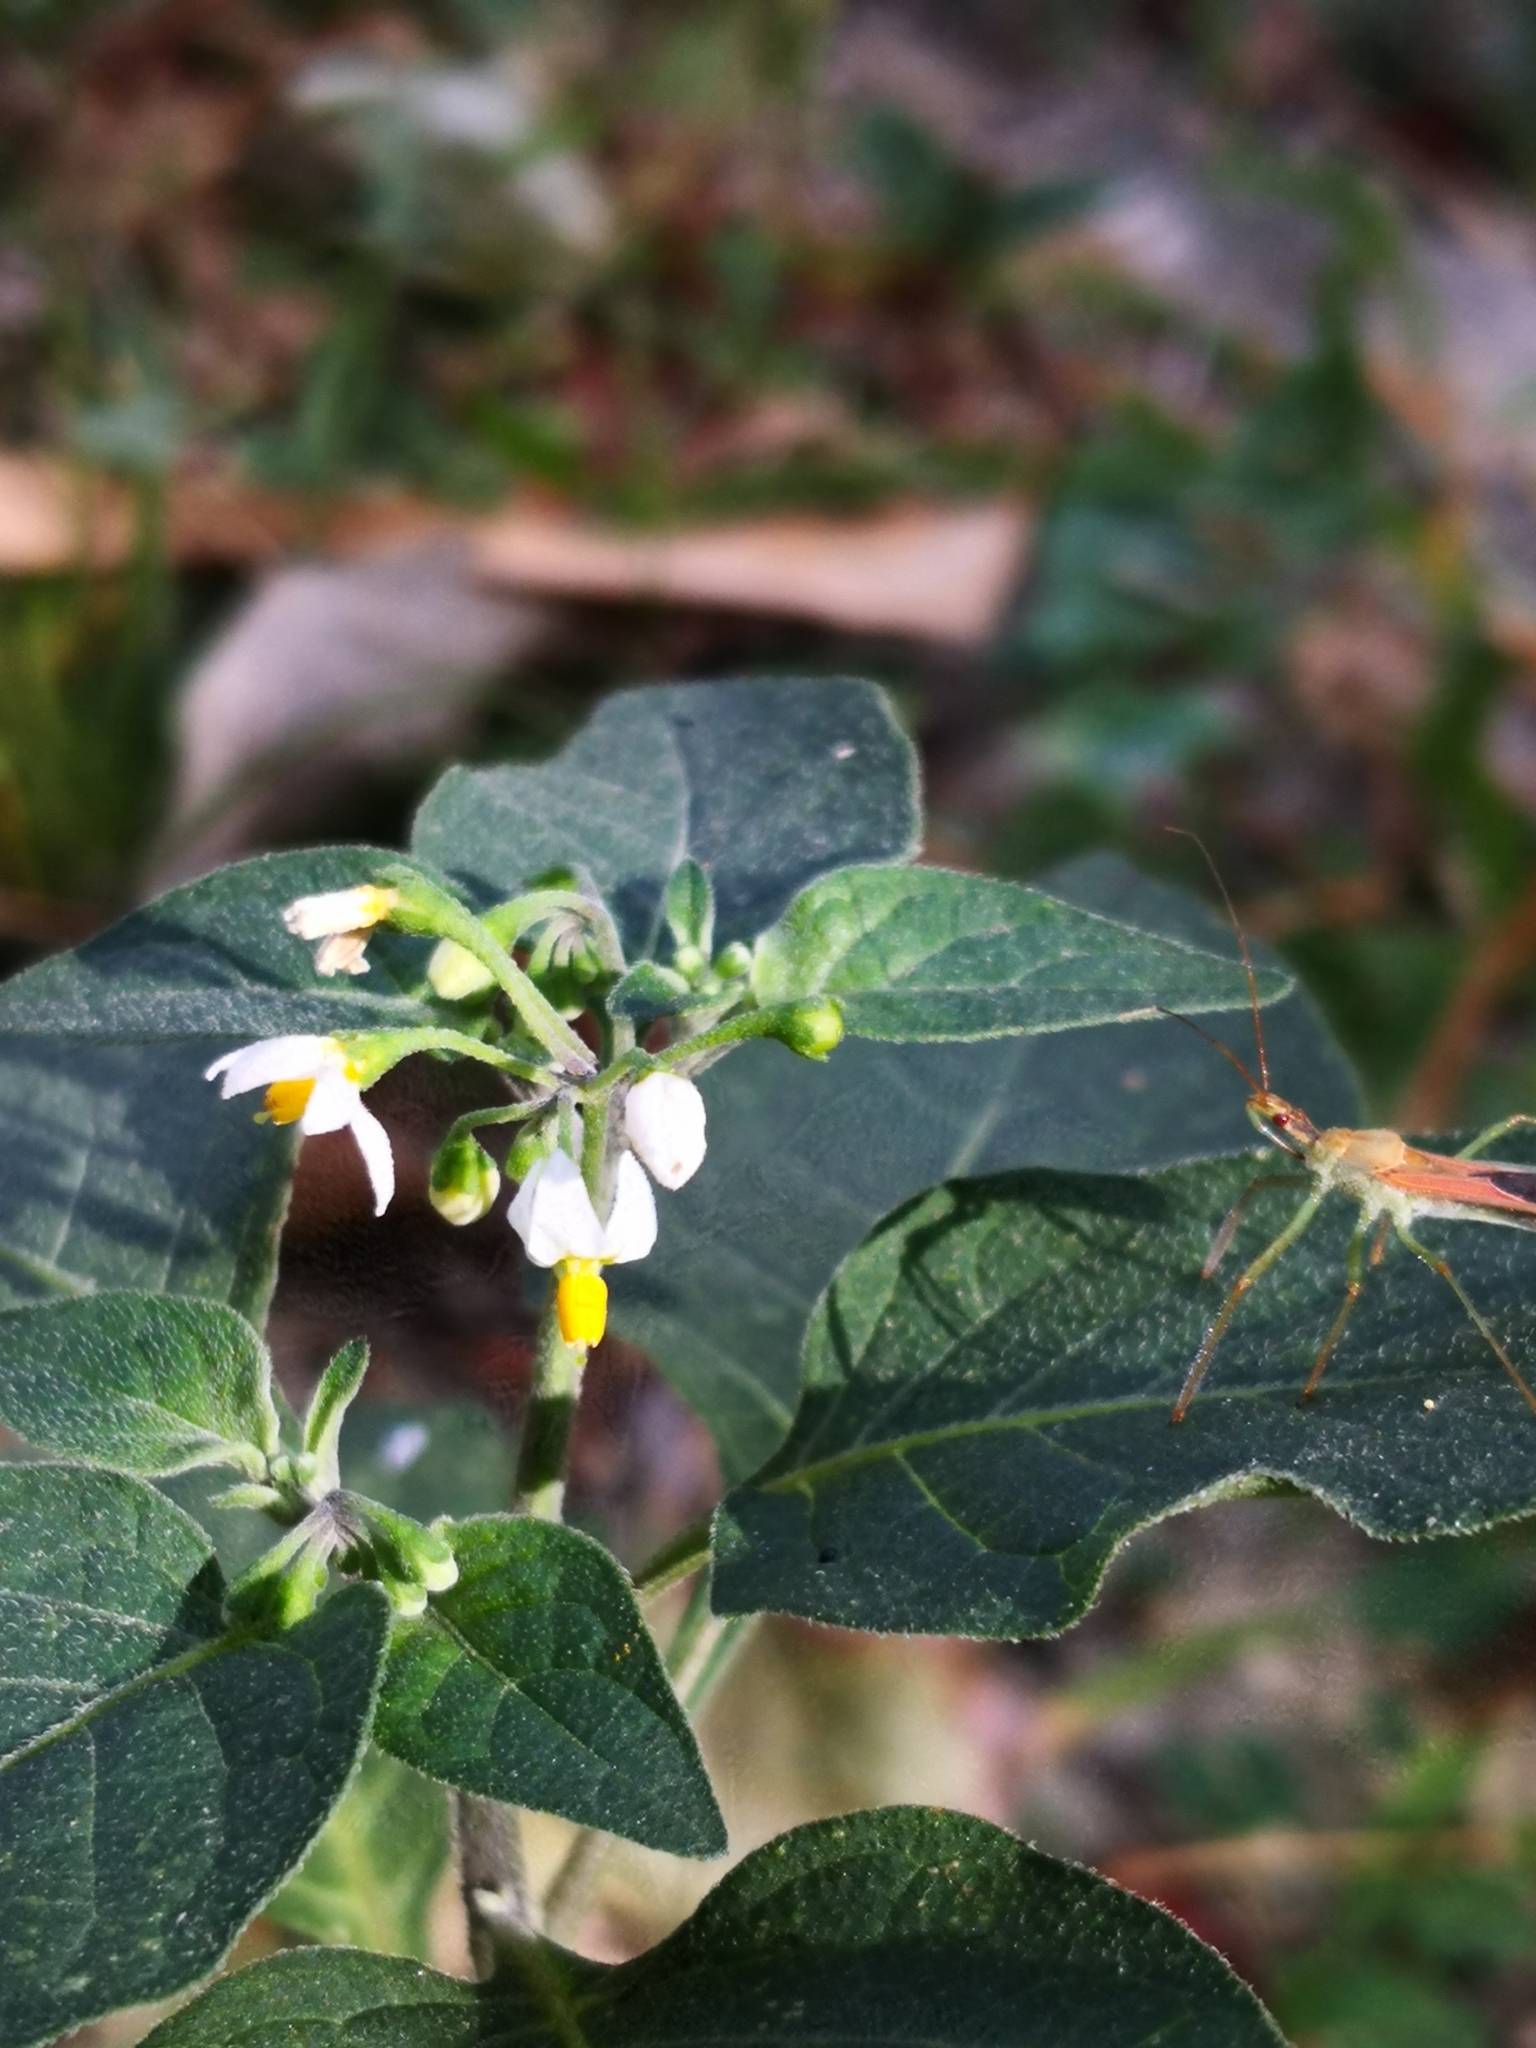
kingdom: Plantae
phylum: Tracheophyta
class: Magnoliopsida
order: Solanales
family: Solanaceae
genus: Solanum
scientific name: Solanum nigrum
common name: Black nightshade
